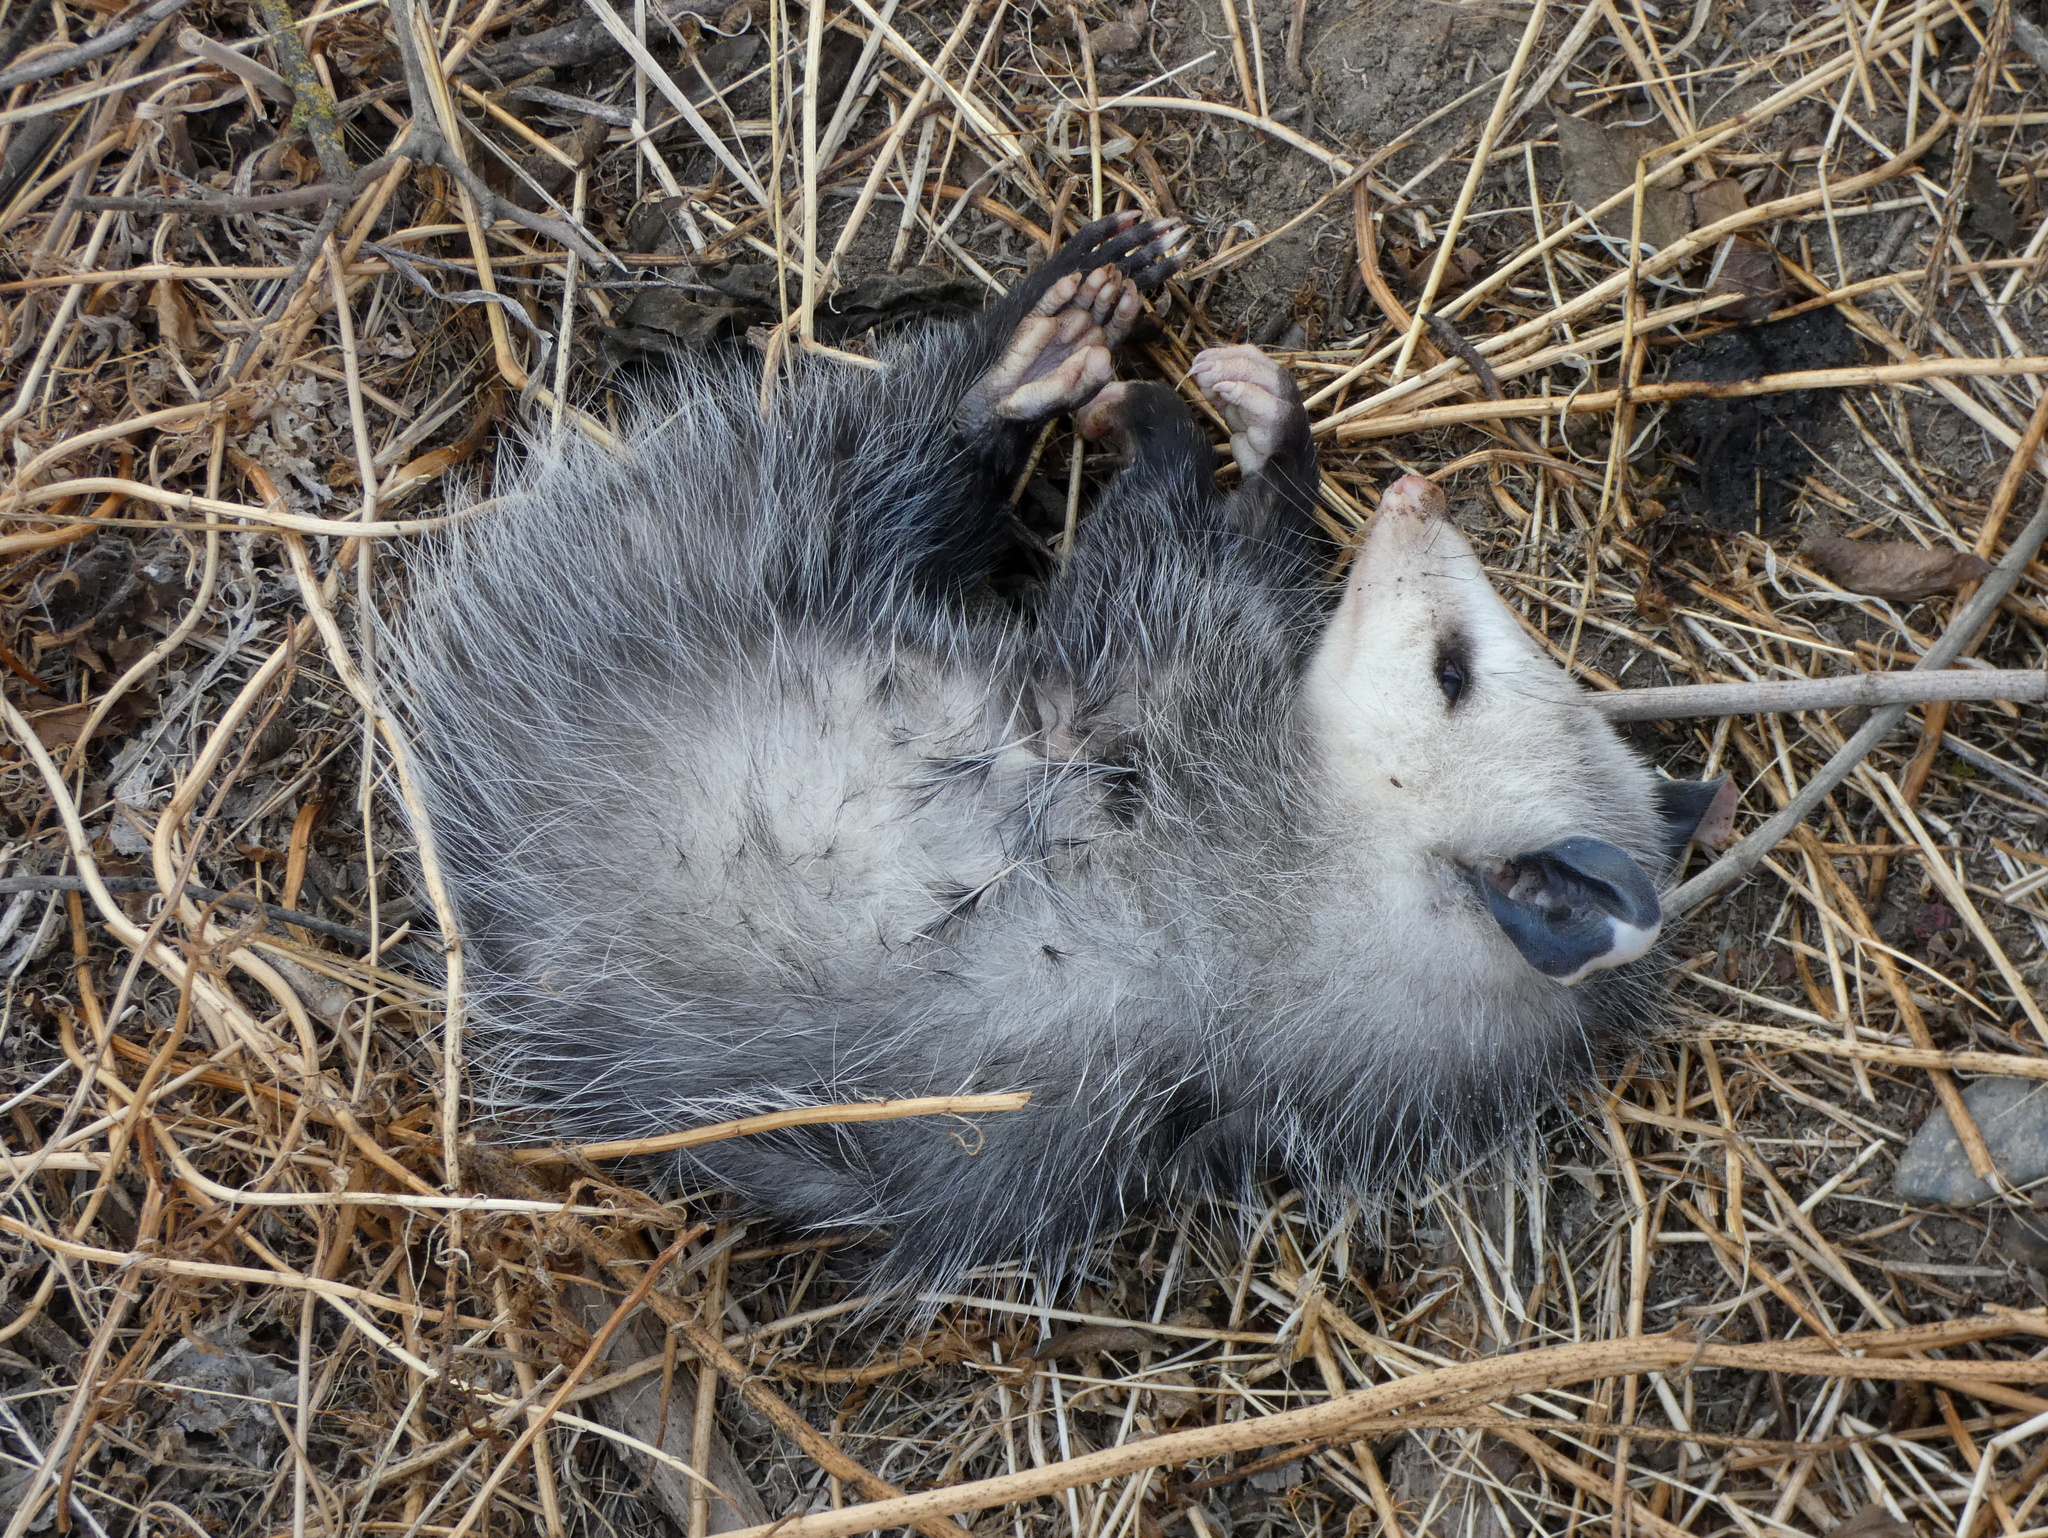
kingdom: Animalia
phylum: Chordata
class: Mammalia
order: Didelphimorphia
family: Didelphidae
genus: Didelphis
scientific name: Didelphis virginiana
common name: Virginia opossum
